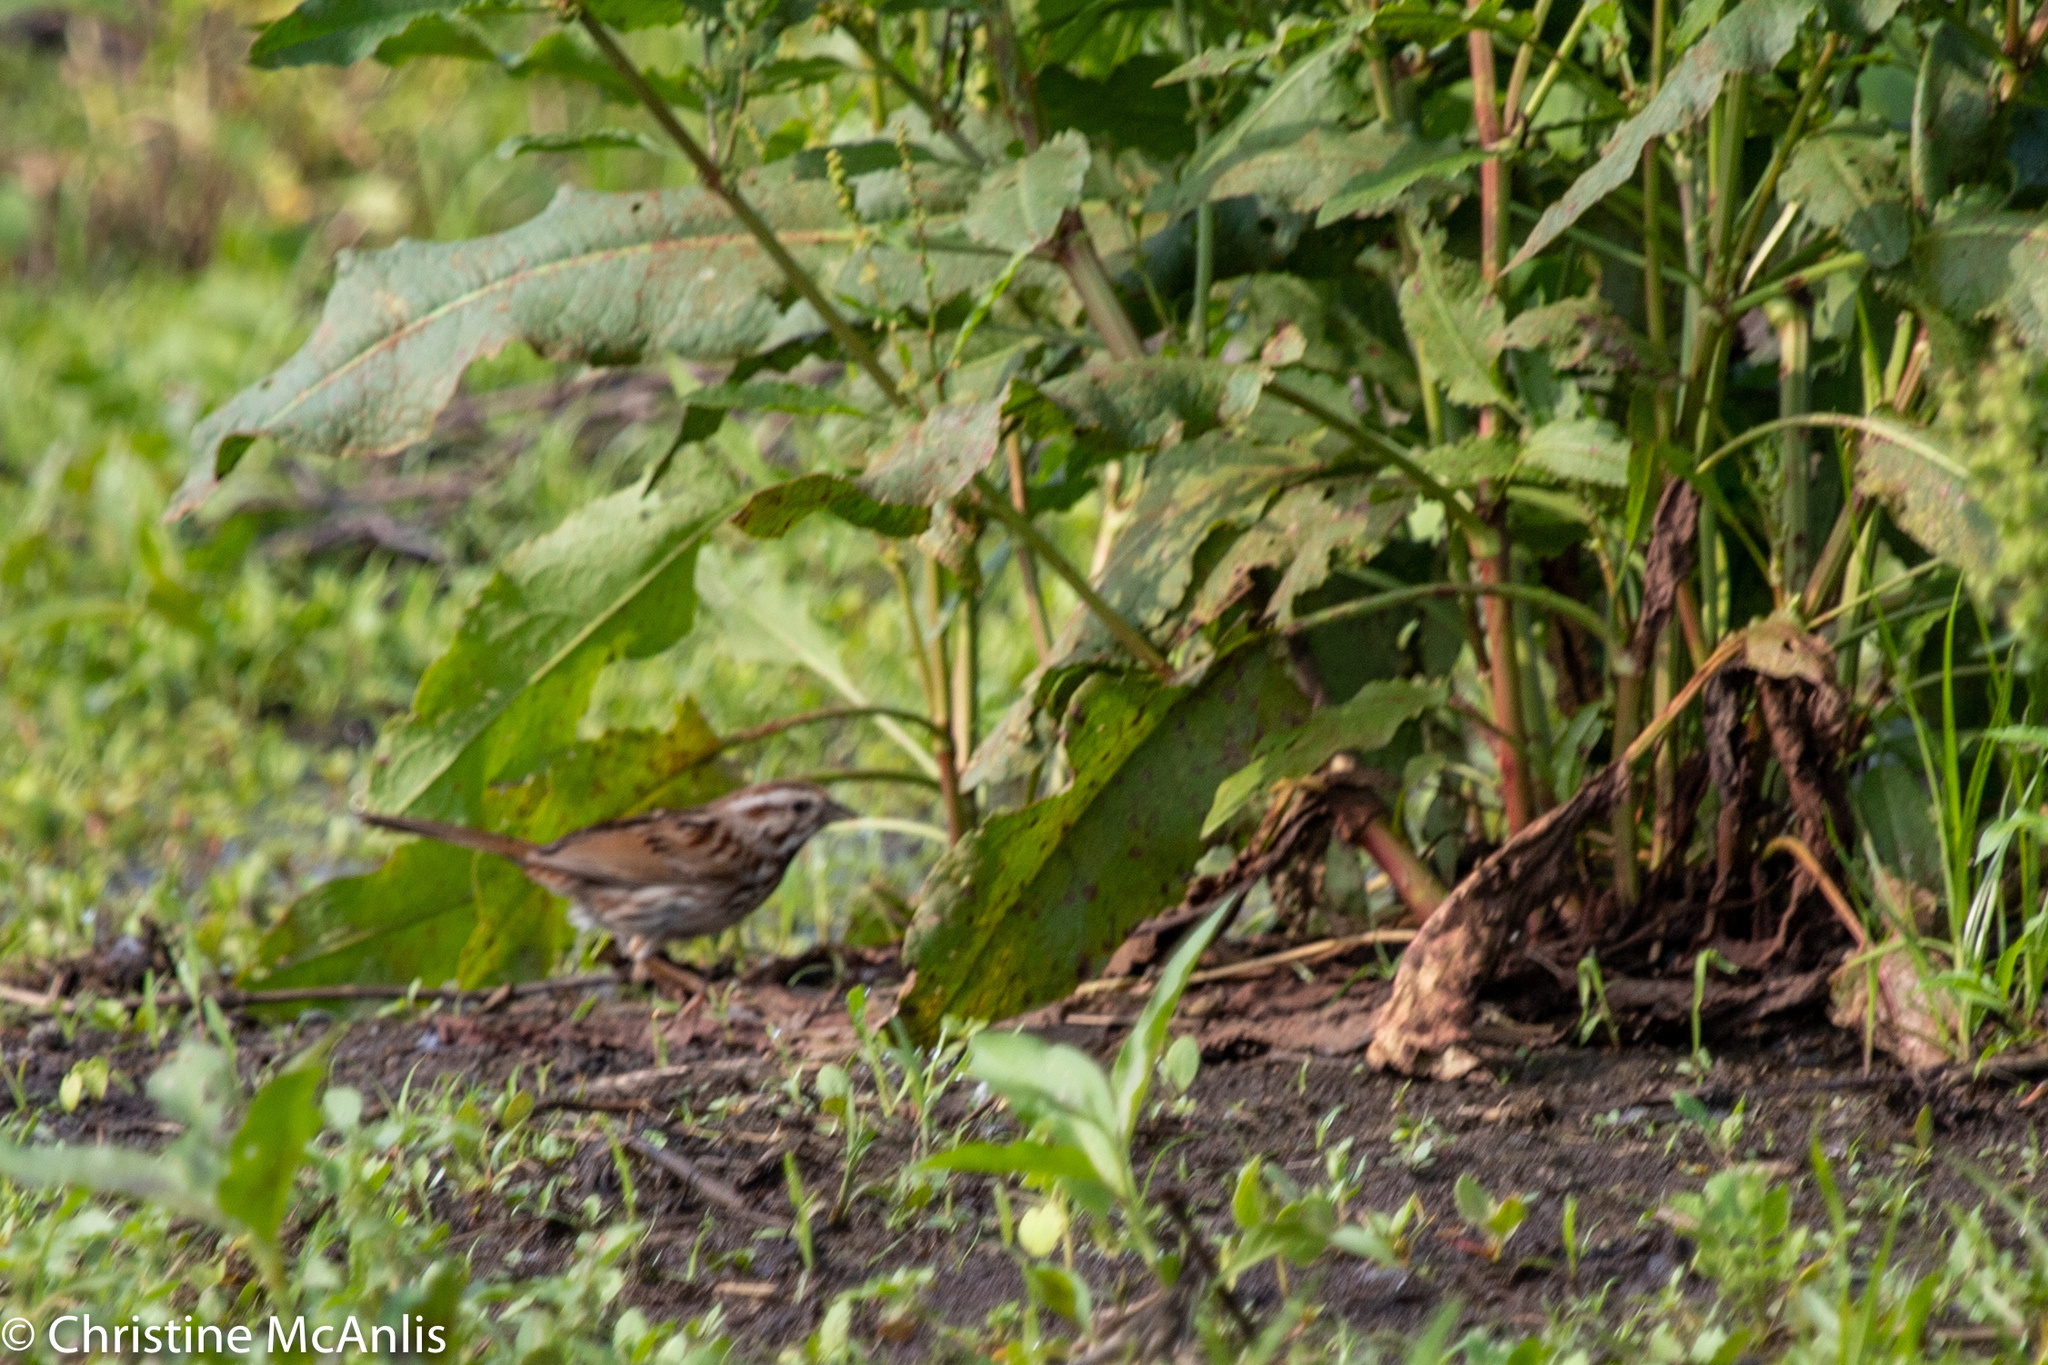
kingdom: Animalia
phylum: Chordata
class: Aves
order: Passeriformes
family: Passerellidae
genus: Melospiza
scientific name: Melospiza melodia
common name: Song sparrow
